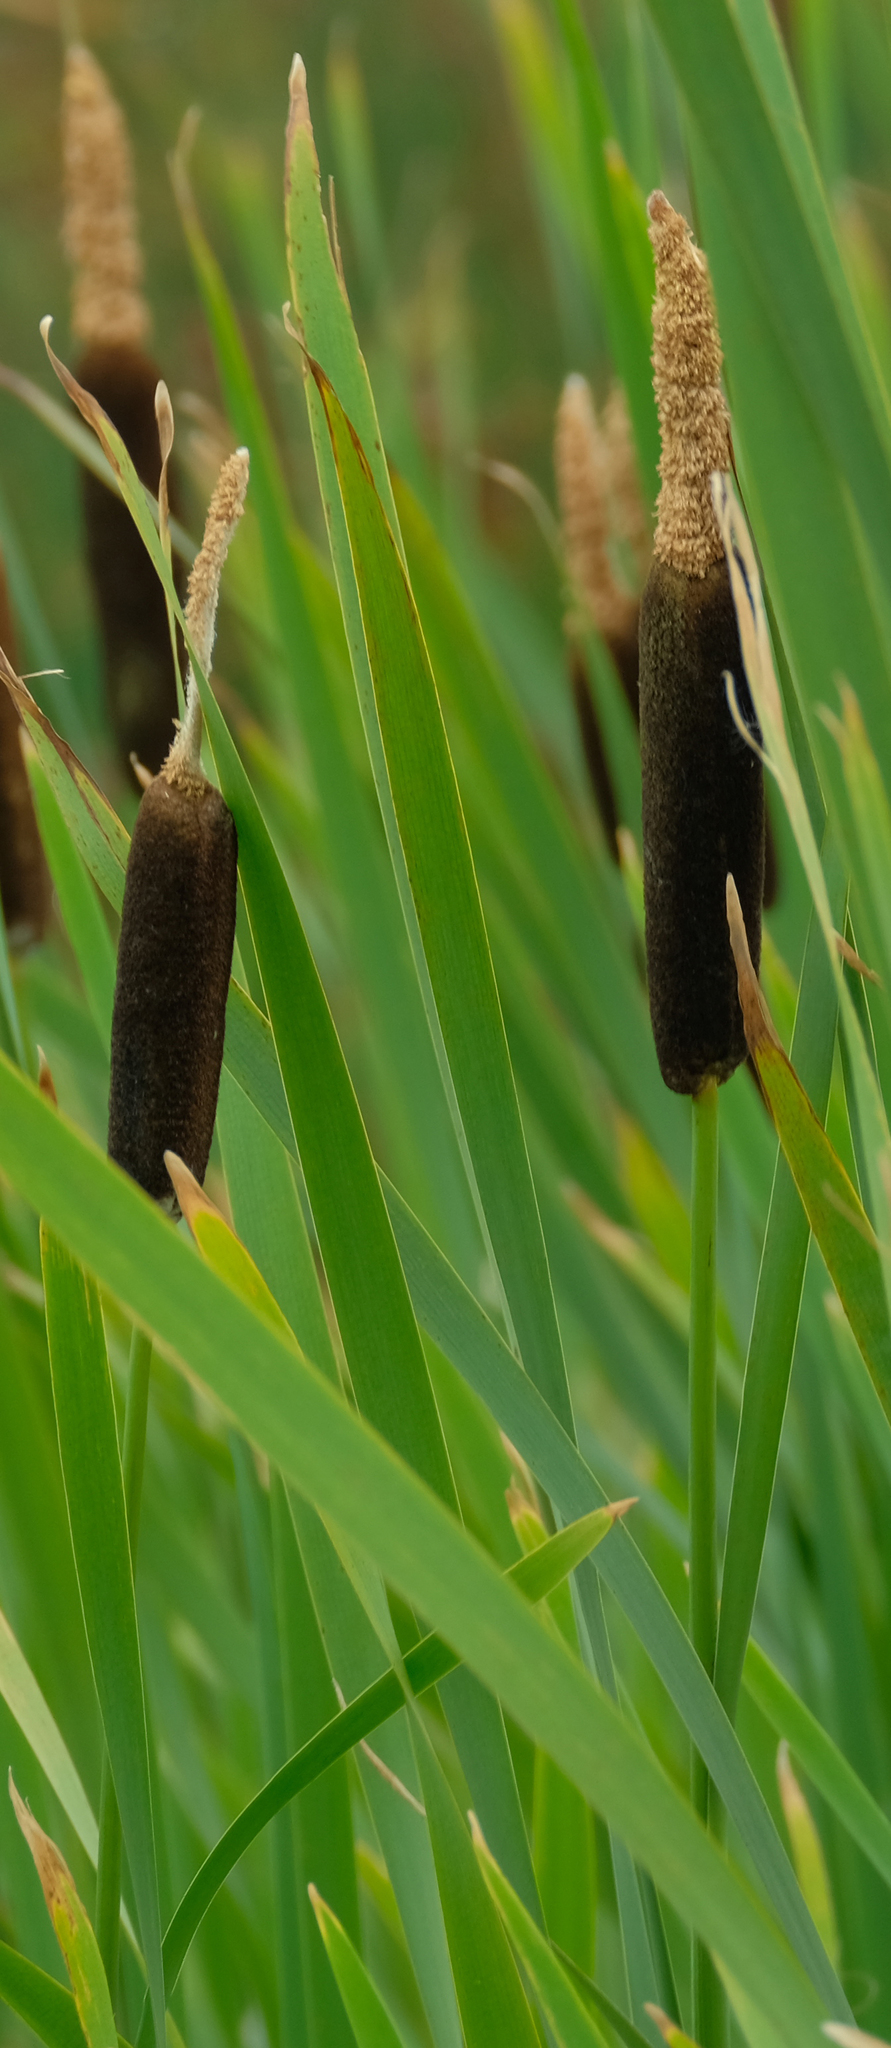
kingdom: Plantae
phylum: Tracheophyta
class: Liliopsida
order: Poales
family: Typhaceae
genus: Typha
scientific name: Typha latifolia
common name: Broadleaf cattail
